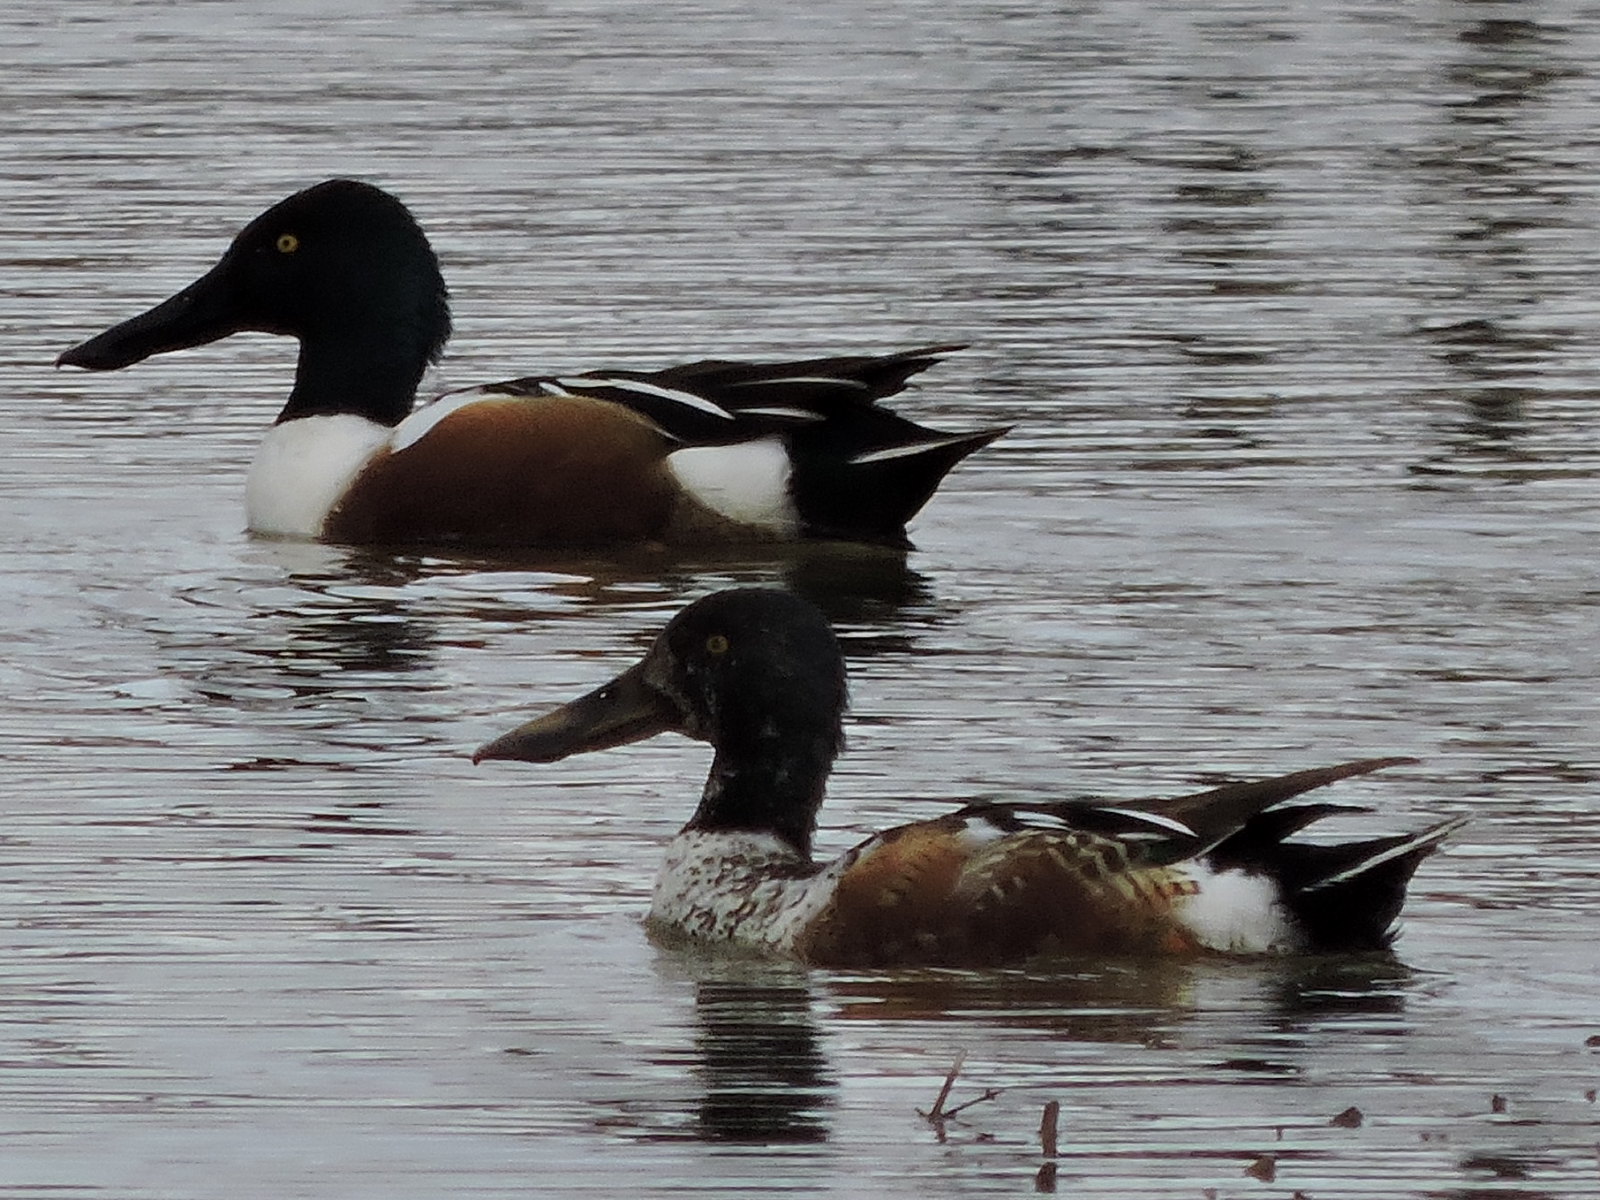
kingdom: Animalia
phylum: Chordata
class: Aves
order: Anseriformes
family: Anatidae
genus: Spatula
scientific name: Spatula clypeata
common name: Northern shoveler
